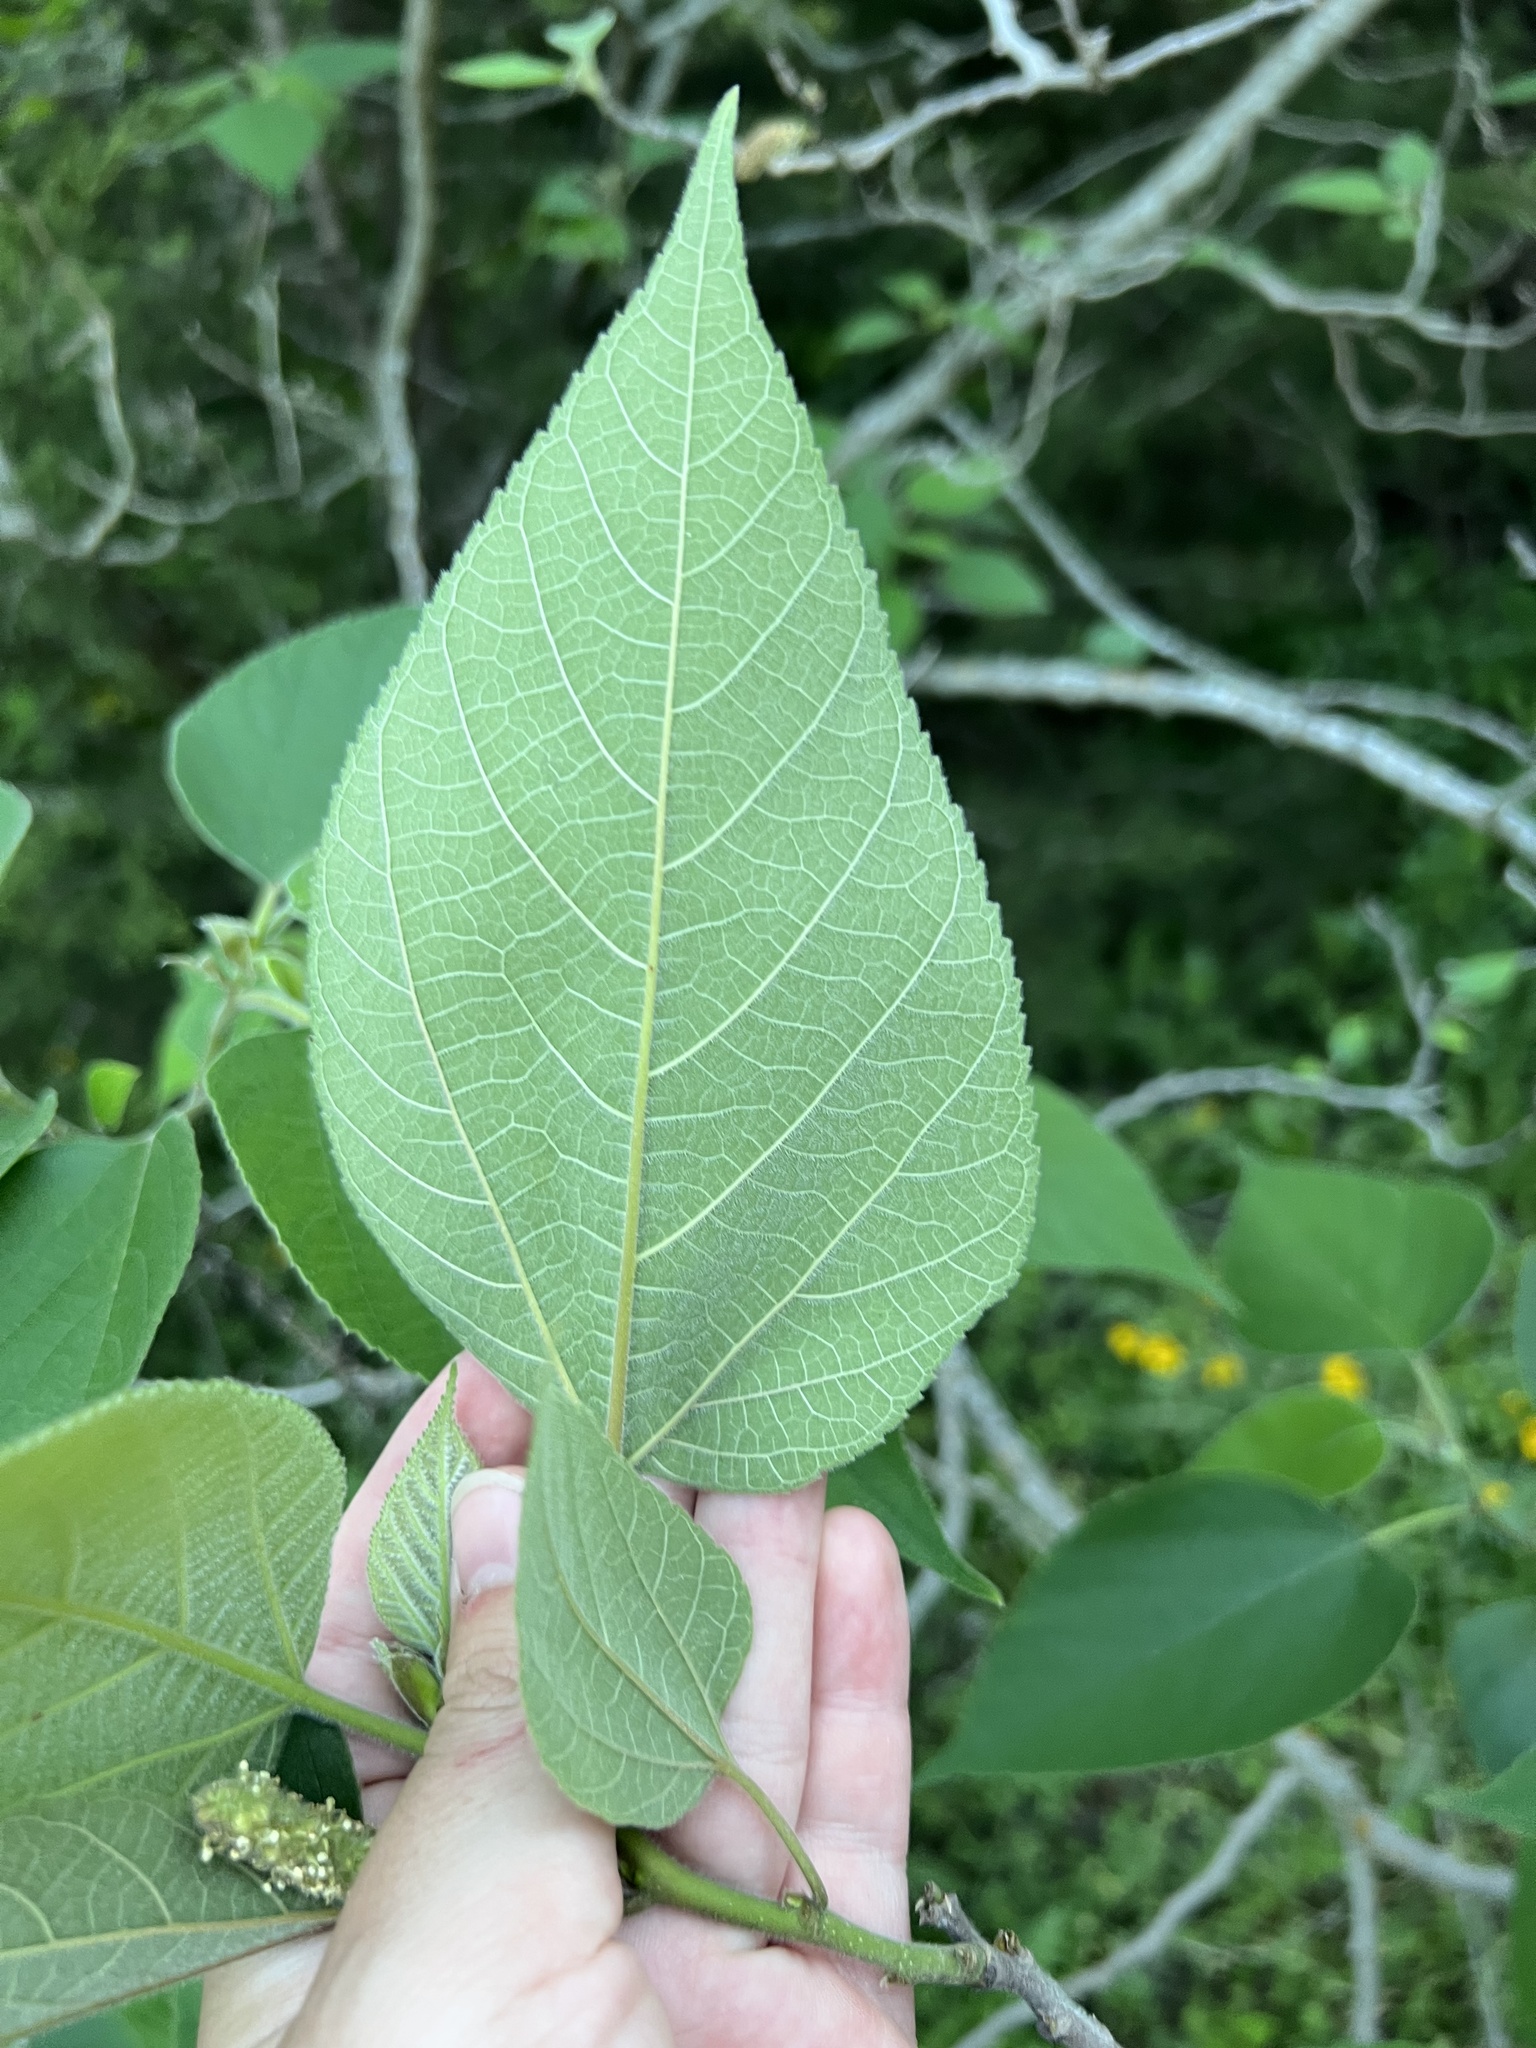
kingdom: Plantae
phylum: Tracheophyta
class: Magnoliopsida
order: Rosales
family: Moraceae
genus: Broussonetia
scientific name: Broussonetia papyrifera
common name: Paper mulberry
